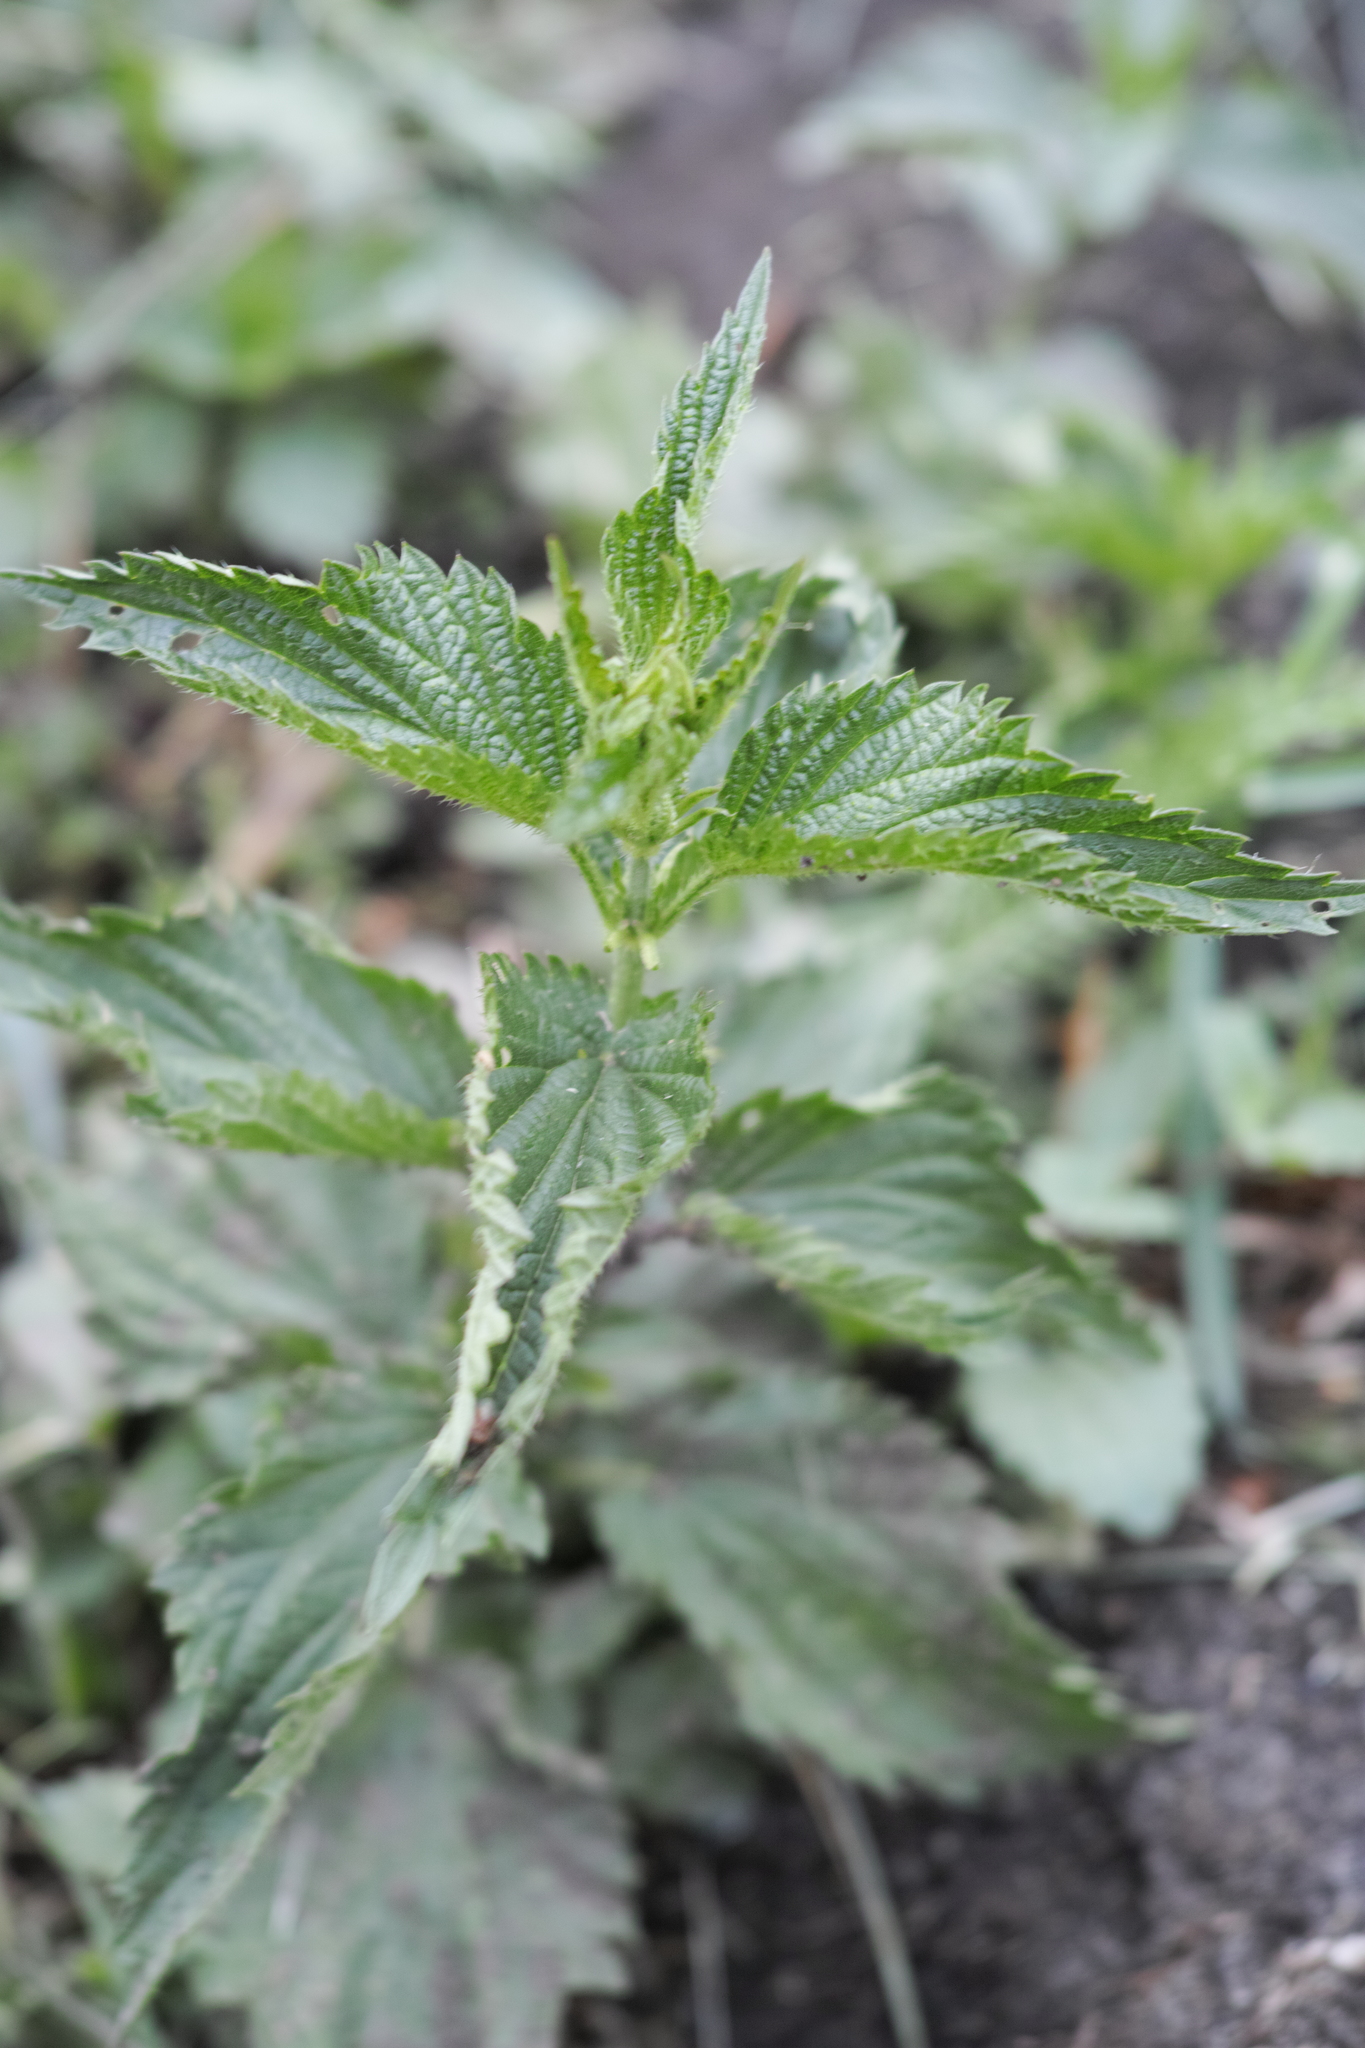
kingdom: Plantae
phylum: Tracheophyta
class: Magnoliopsida
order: Rosales
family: Urticaceae
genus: Urtica
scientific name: Urtica dioica
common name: Common nettle
